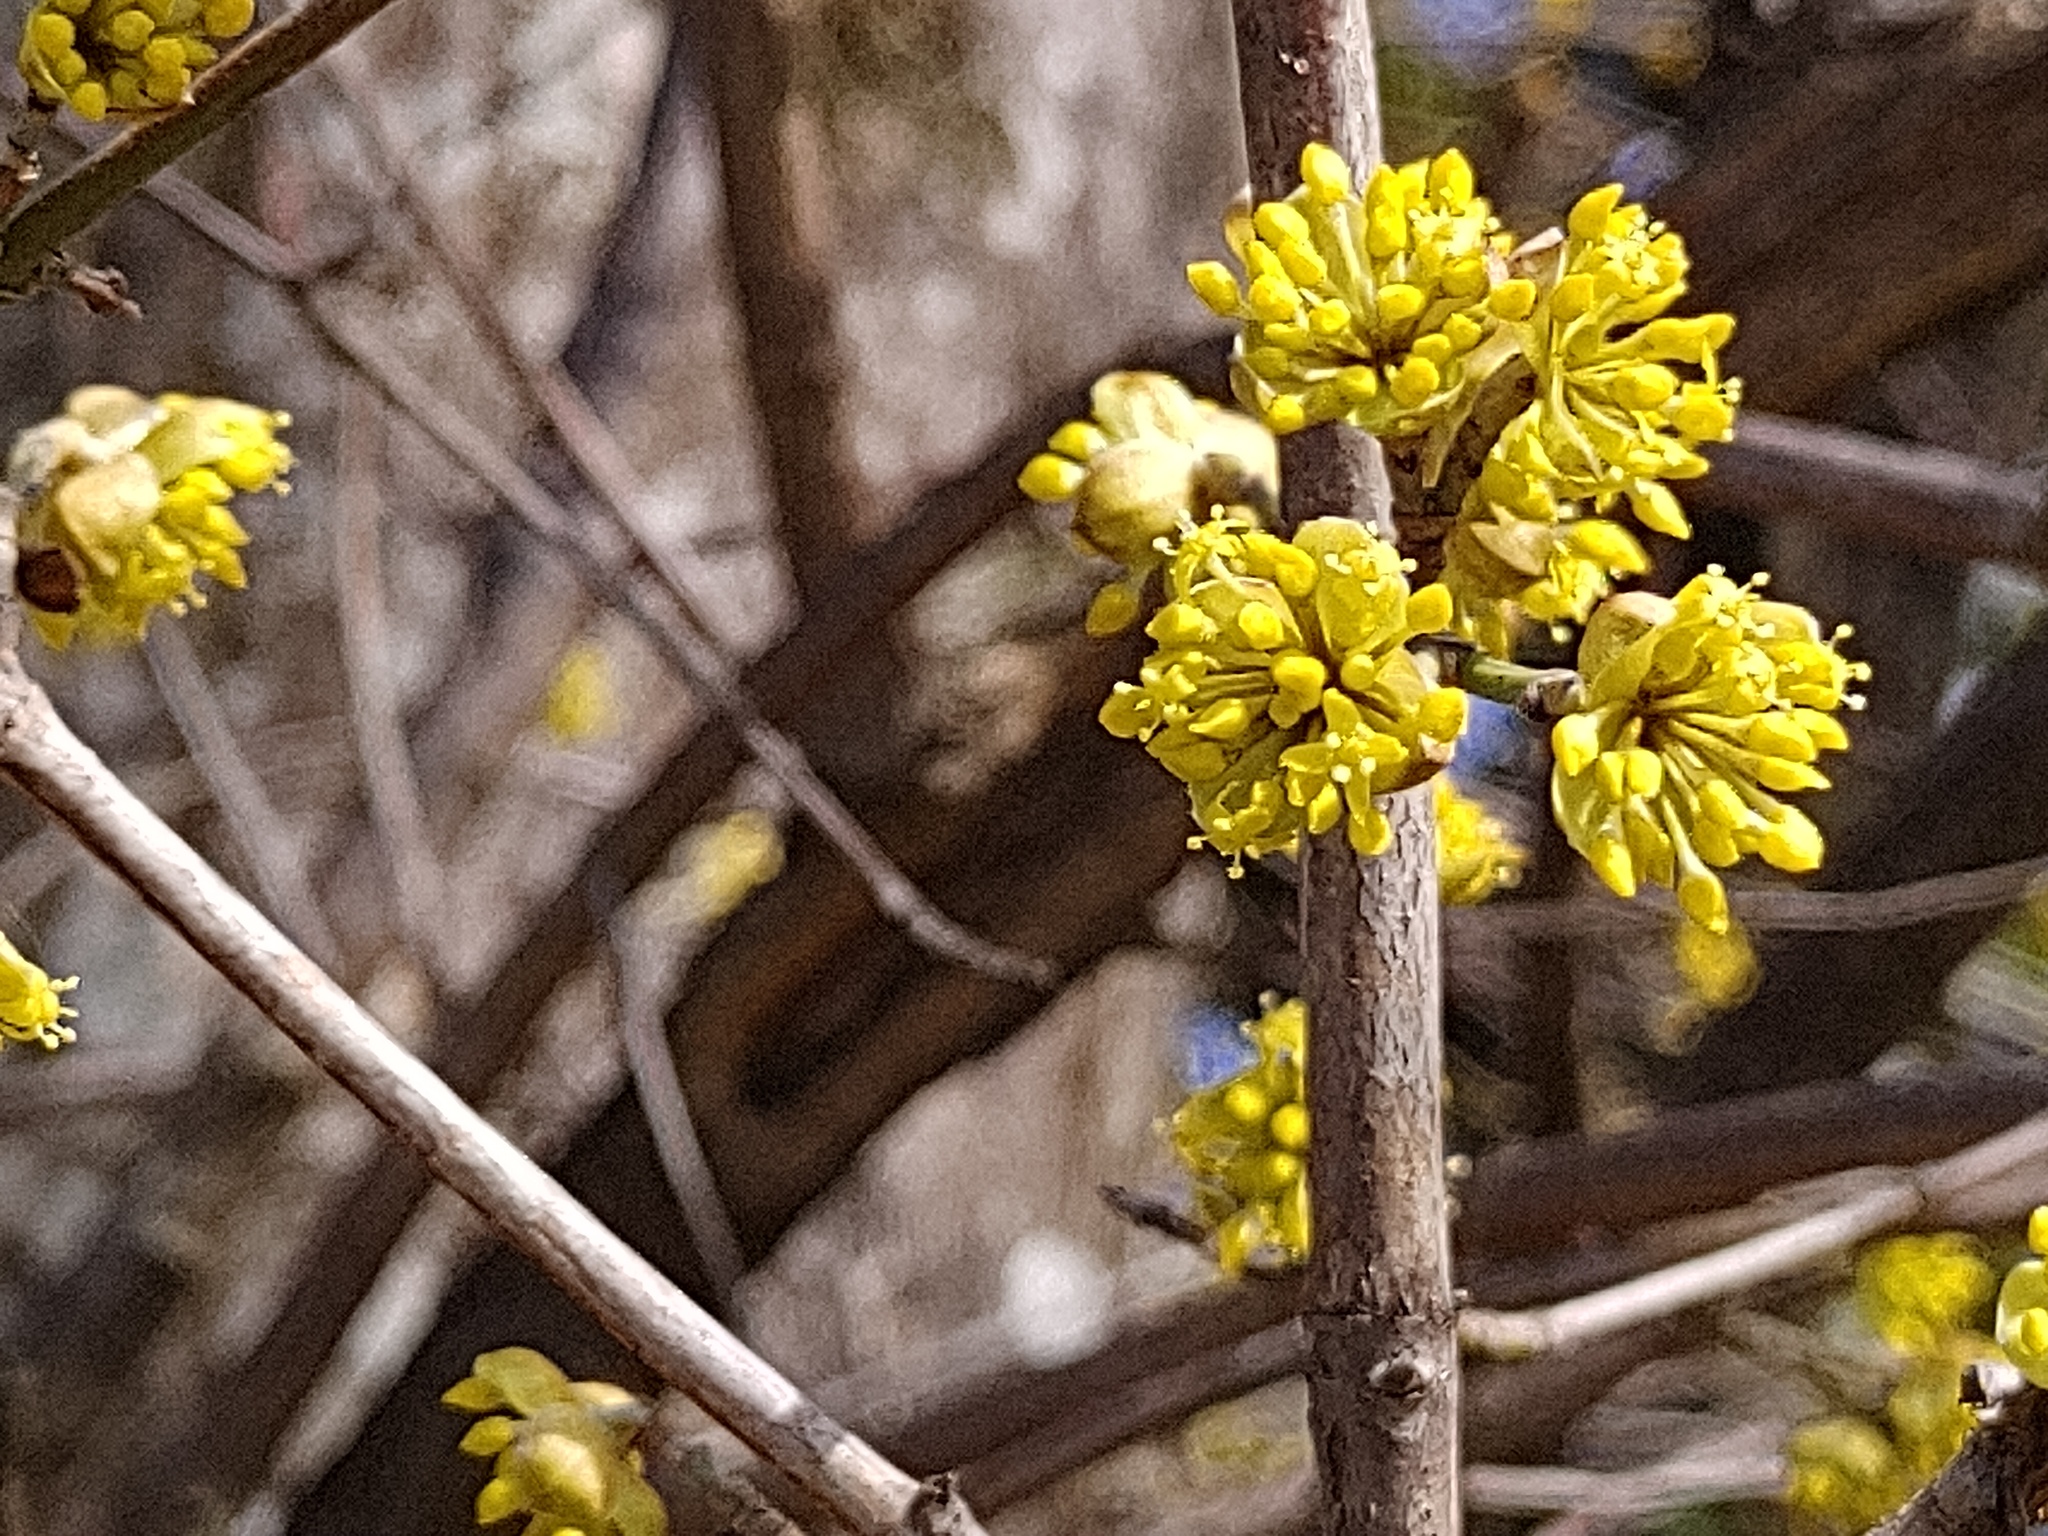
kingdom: Plantae
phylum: Tracheophyta
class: Magnoliopsida
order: Cornales
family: Cornaceae
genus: Cornus
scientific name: Cornus mas
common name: Cornelian-cherry
